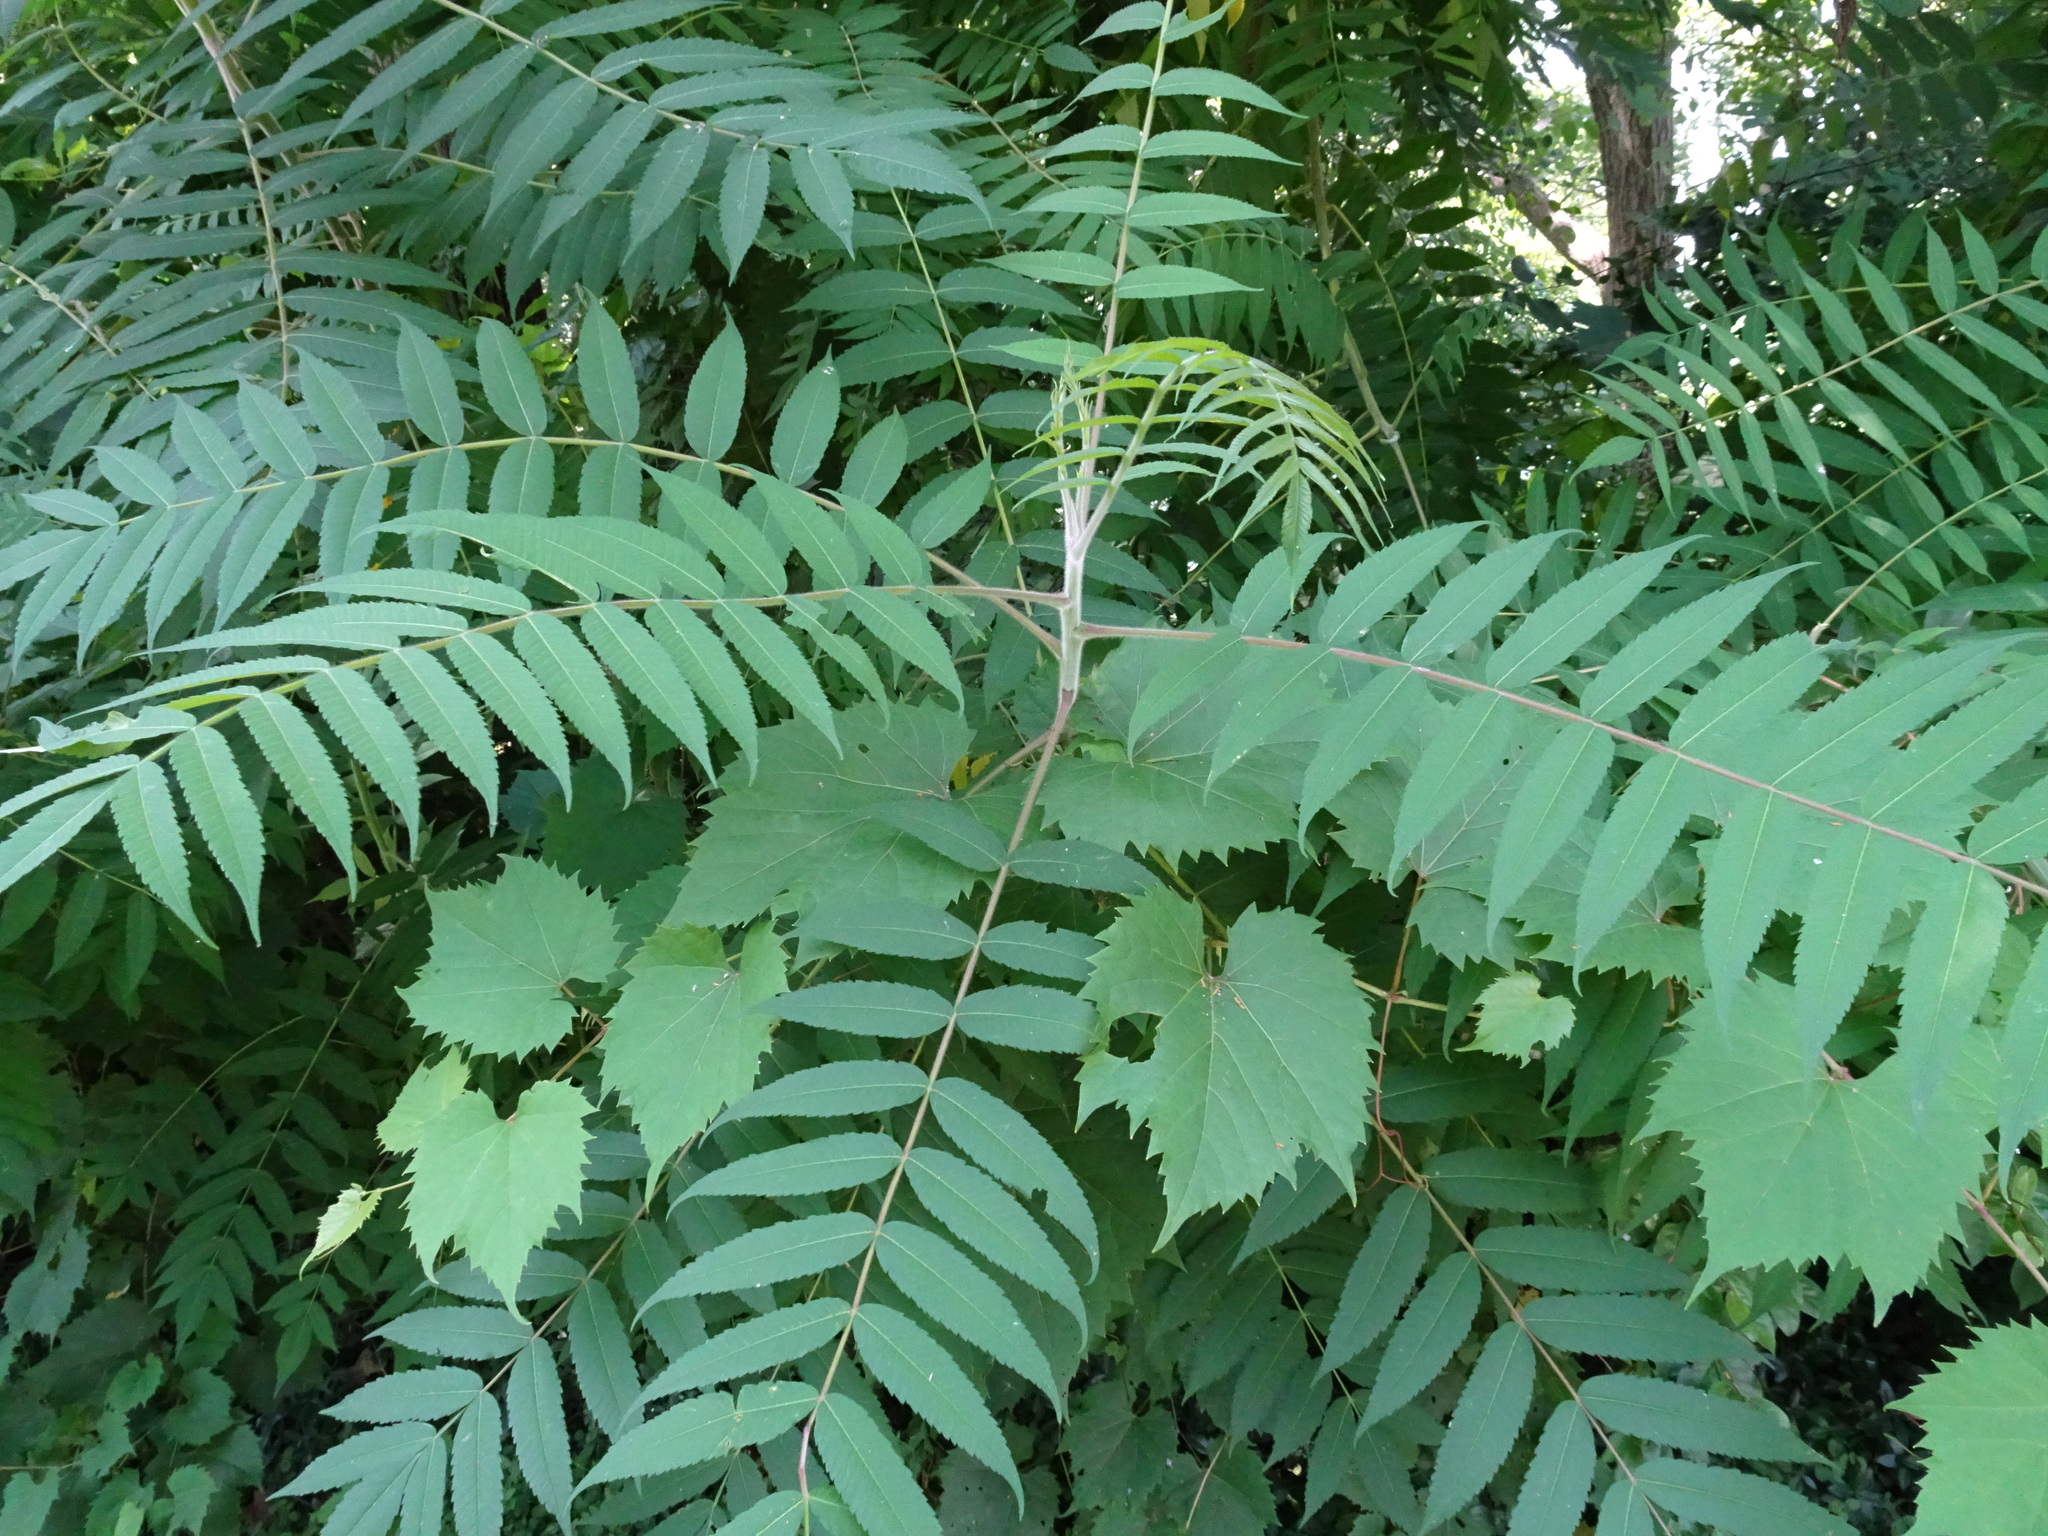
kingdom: Plantae
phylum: Tracheophyta
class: Magnoliopsida
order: Sapindales
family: Anacardiaceae
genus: Rhus
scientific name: Rhus typhina
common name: Staghorn sumac
